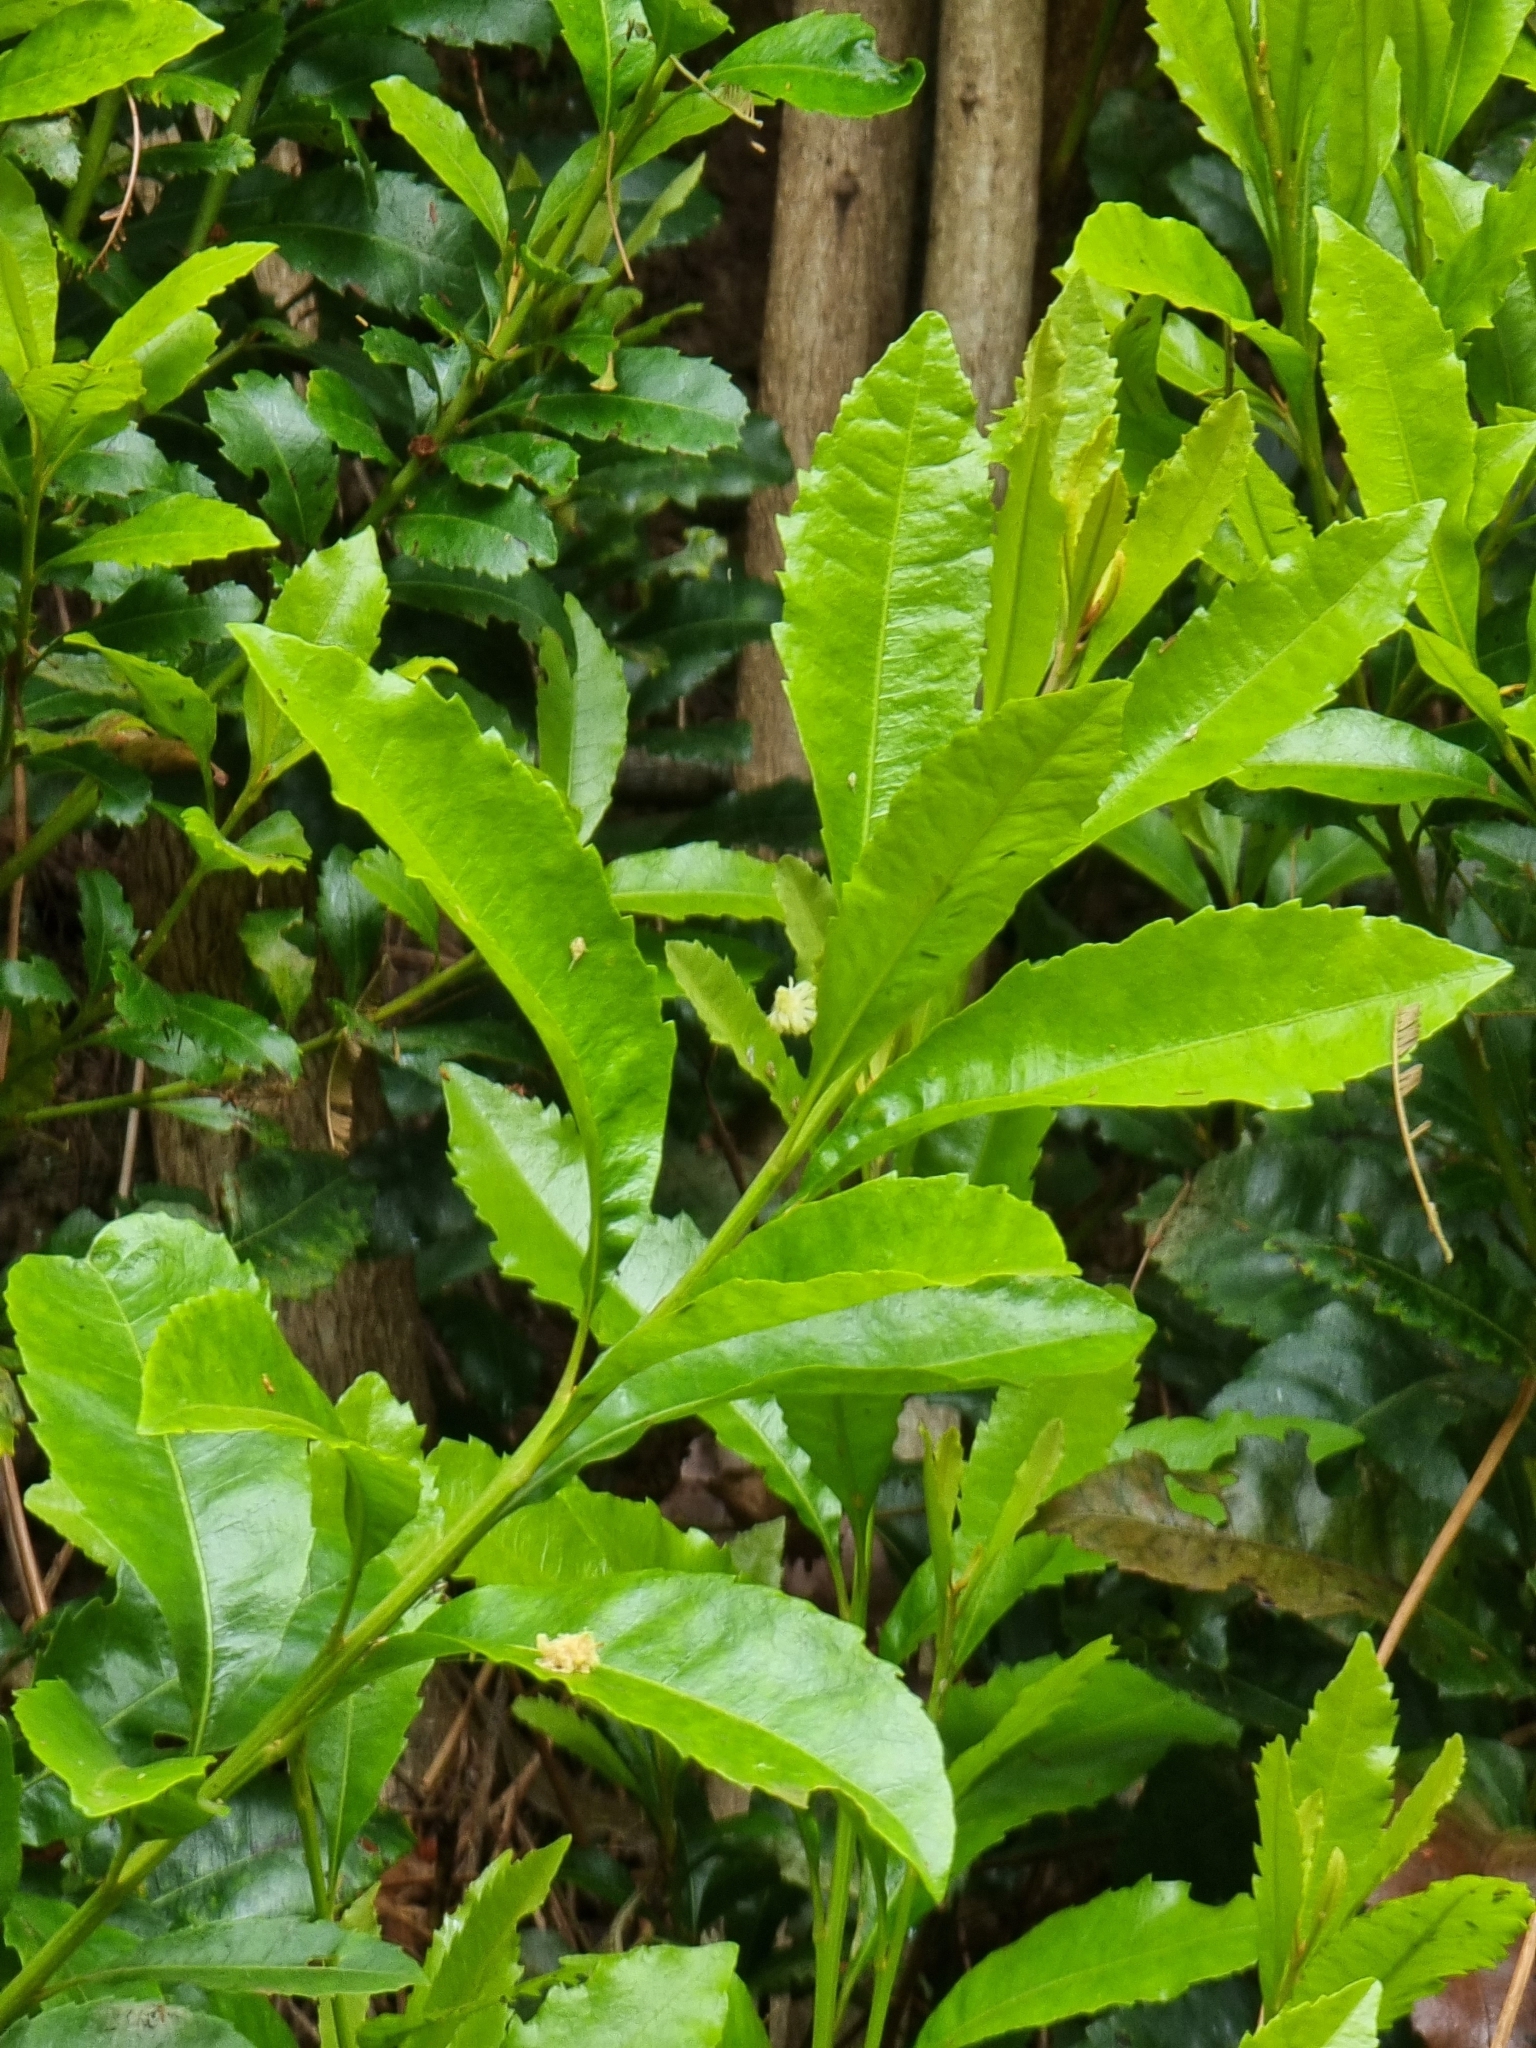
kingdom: Plantae
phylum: Tracheophyta
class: Magnoliopsida
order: Fagales
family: Myricaceae
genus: Morella
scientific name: Morella faya
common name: Firetree
